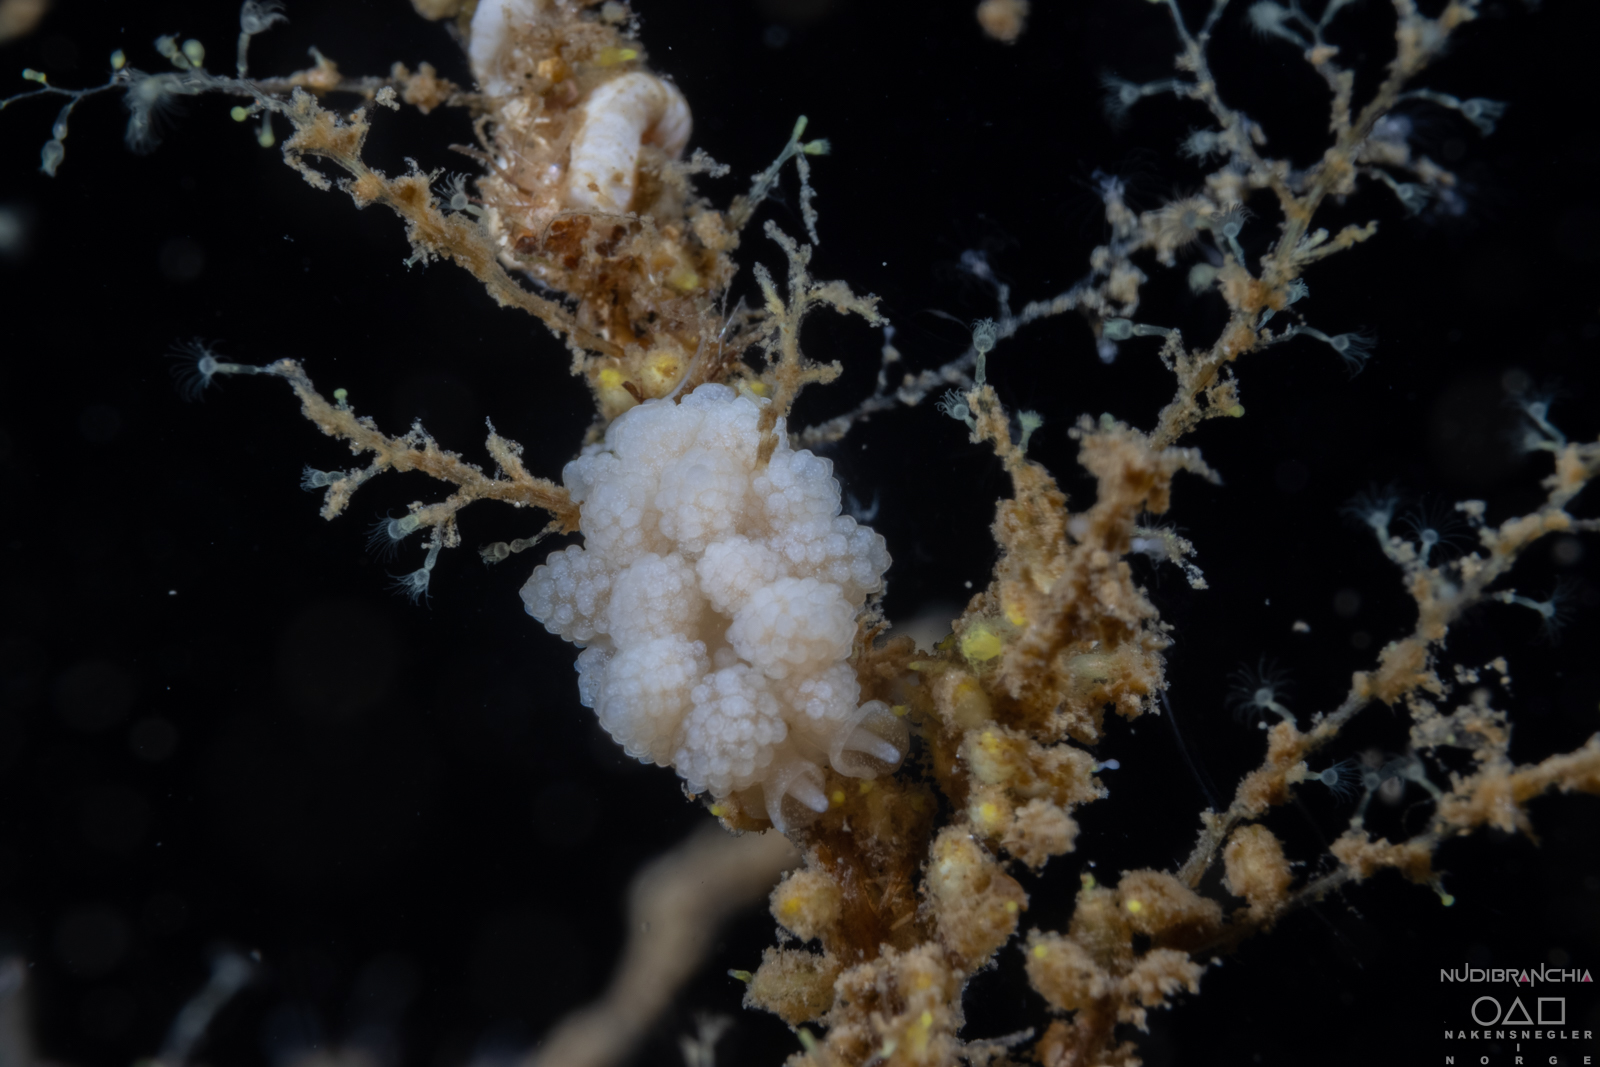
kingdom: Animalia
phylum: Mollusca
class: Gastropoda
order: Nudibranchia
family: Dotidae
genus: Doto
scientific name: Doto fragilis
